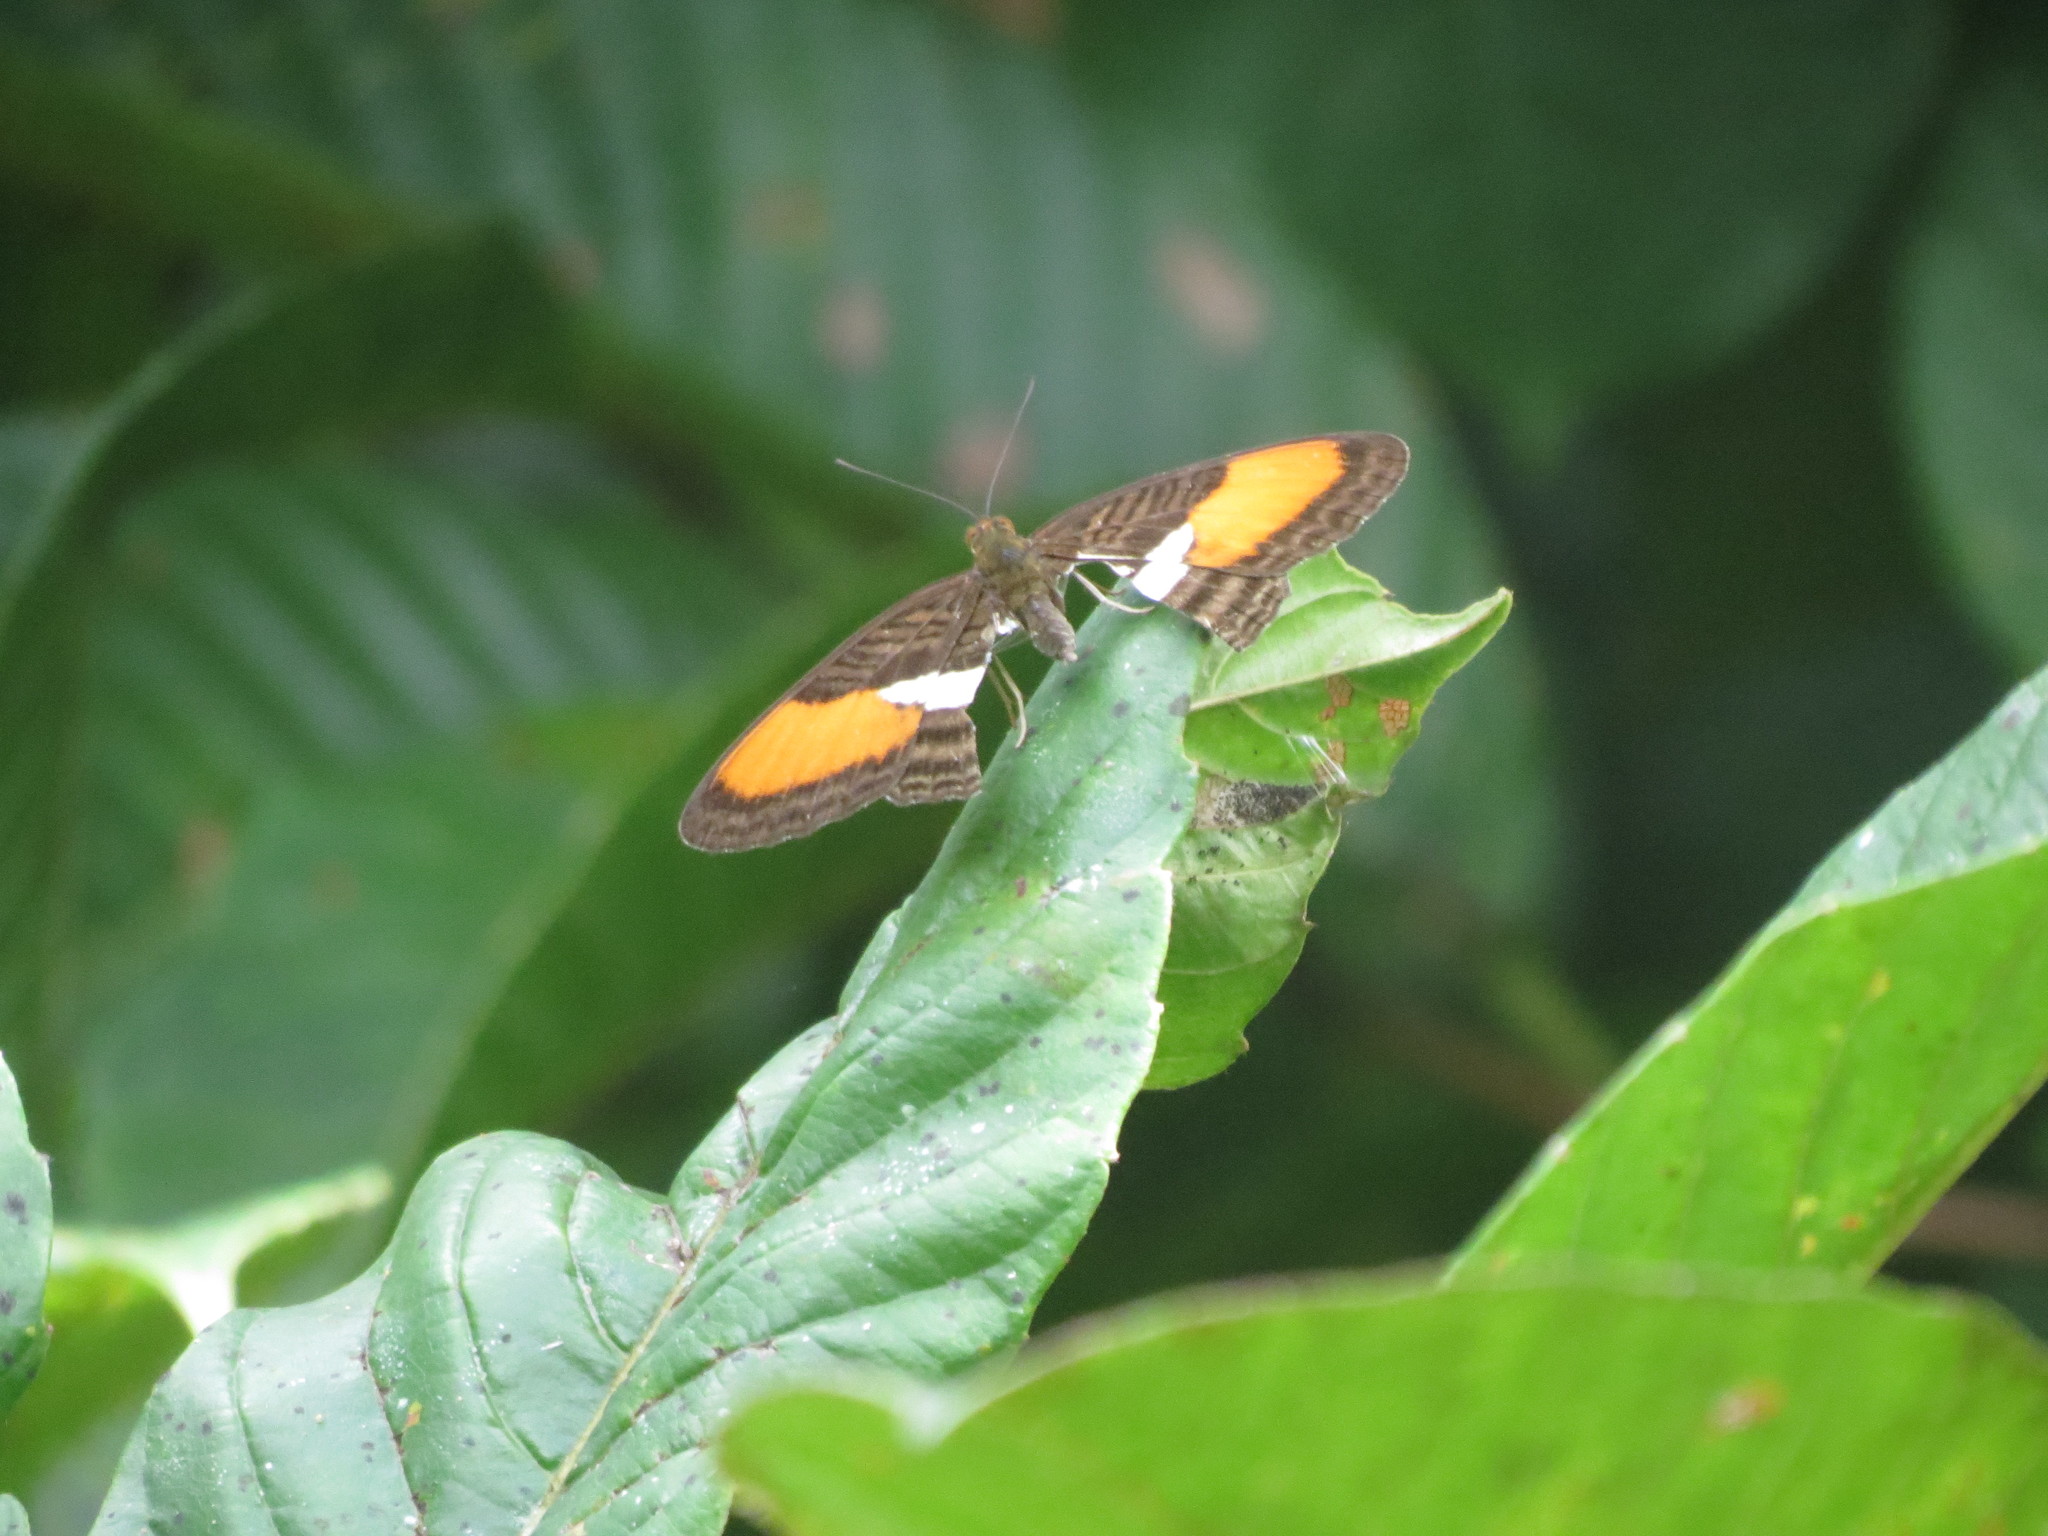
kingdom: Animalia
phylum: Arthropoda
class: Insecta
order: Lepidoptera
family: Nymphalidae
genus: Limenitis
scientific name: Limenitis cytherea
